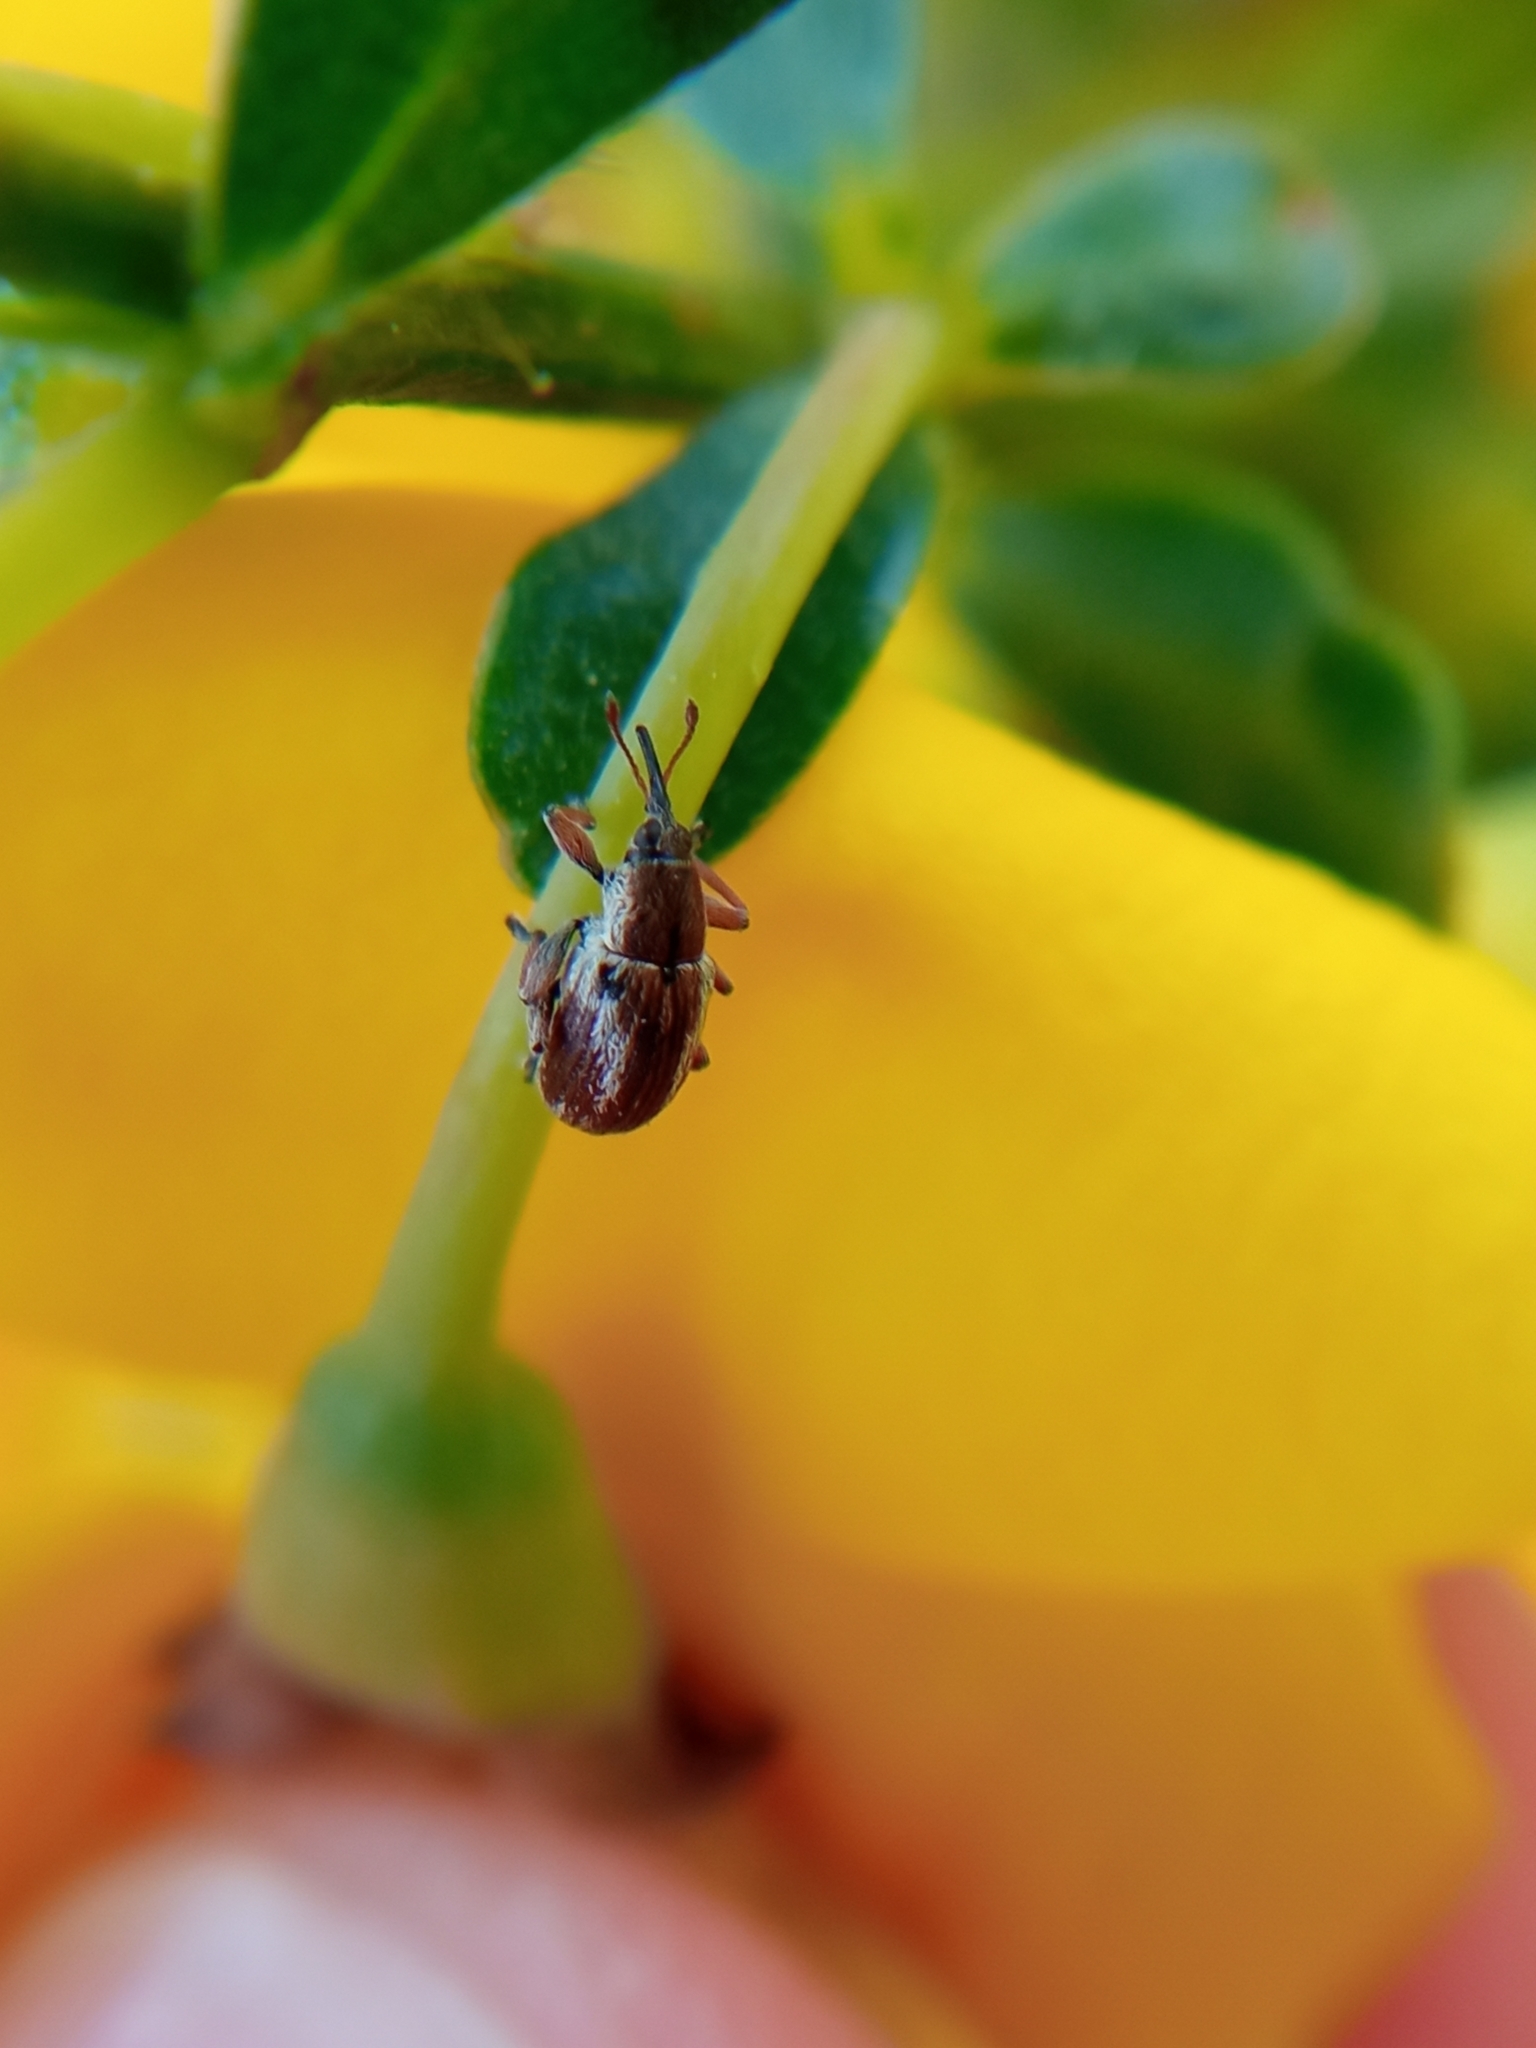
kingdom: Animalia
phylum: Arthropoda
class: Insecta
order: Coleoptera
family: Brentidae
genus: Exapion
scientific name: Exapion fuscirostre
